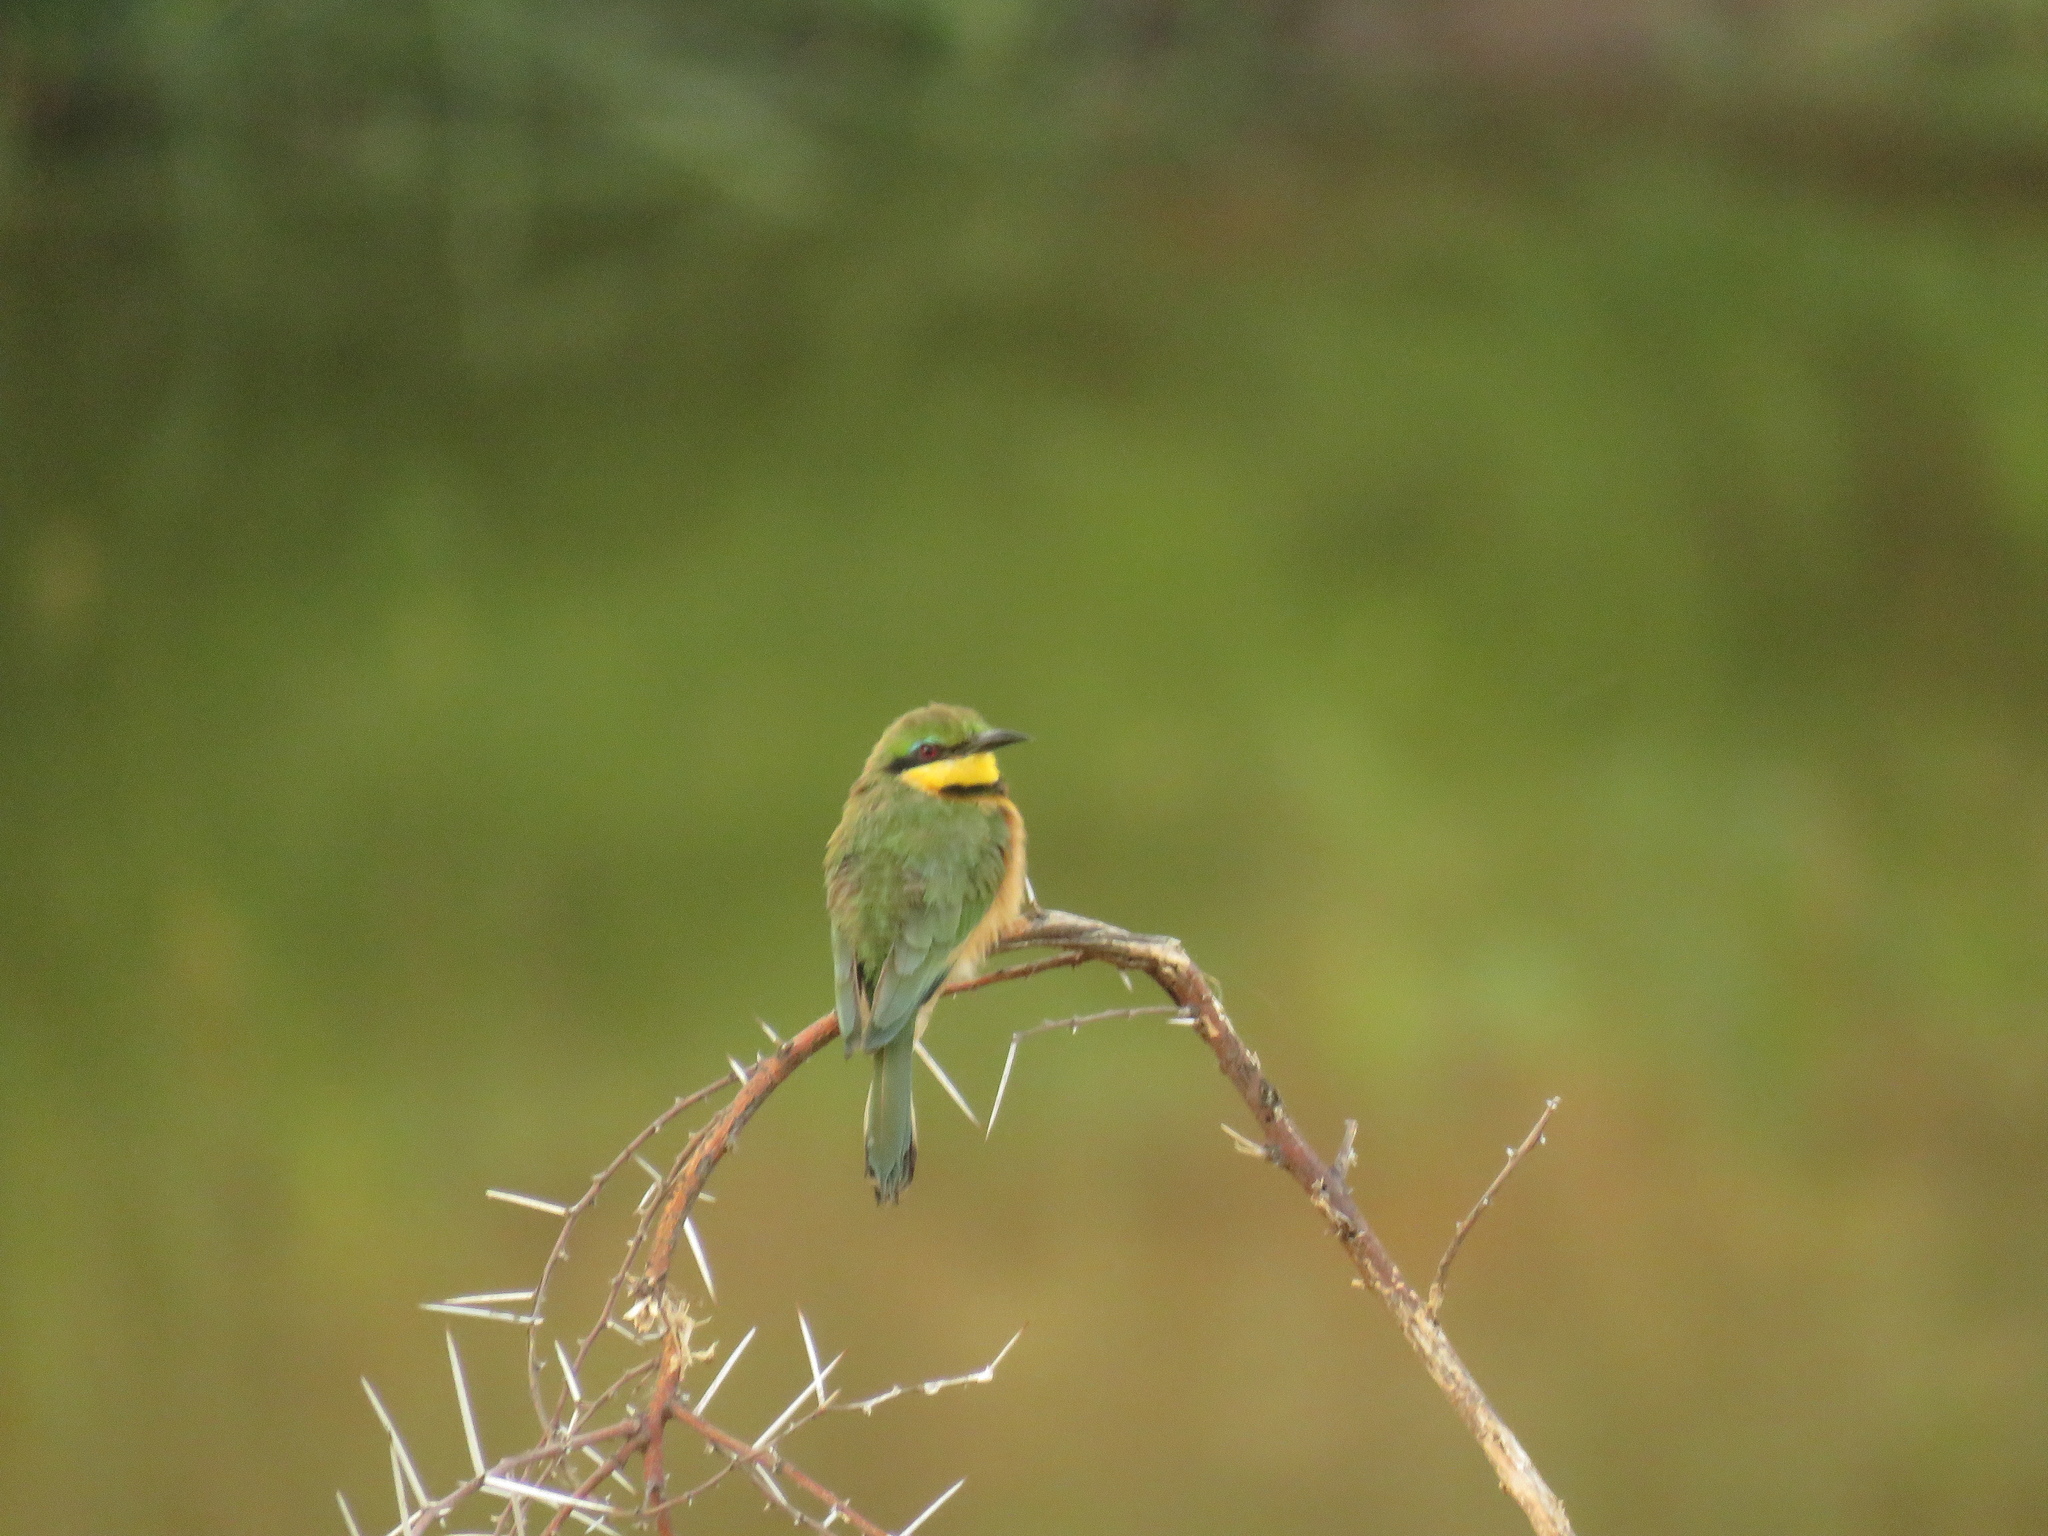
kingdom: Animalia
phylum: Chordata
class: Aves
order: Coraciiformes
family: Meropidae
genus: Merops
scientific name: Merops pusillus
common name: Little bee-eater
